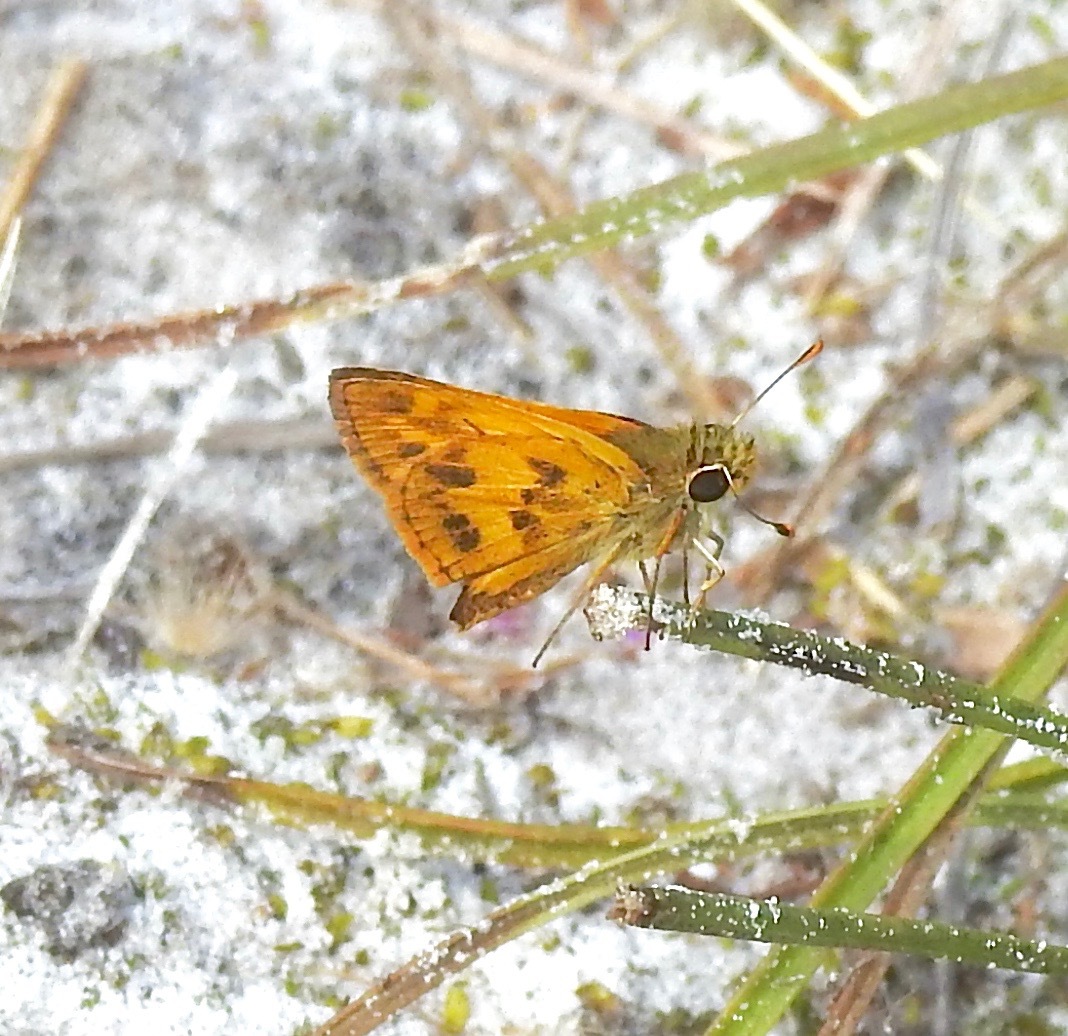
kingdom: Animalia
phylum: Arthropoda
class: Insecta
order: Lepidoptera
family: Hesperiidae
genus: Polites
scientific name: Polites vibex
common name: Whirlabout
